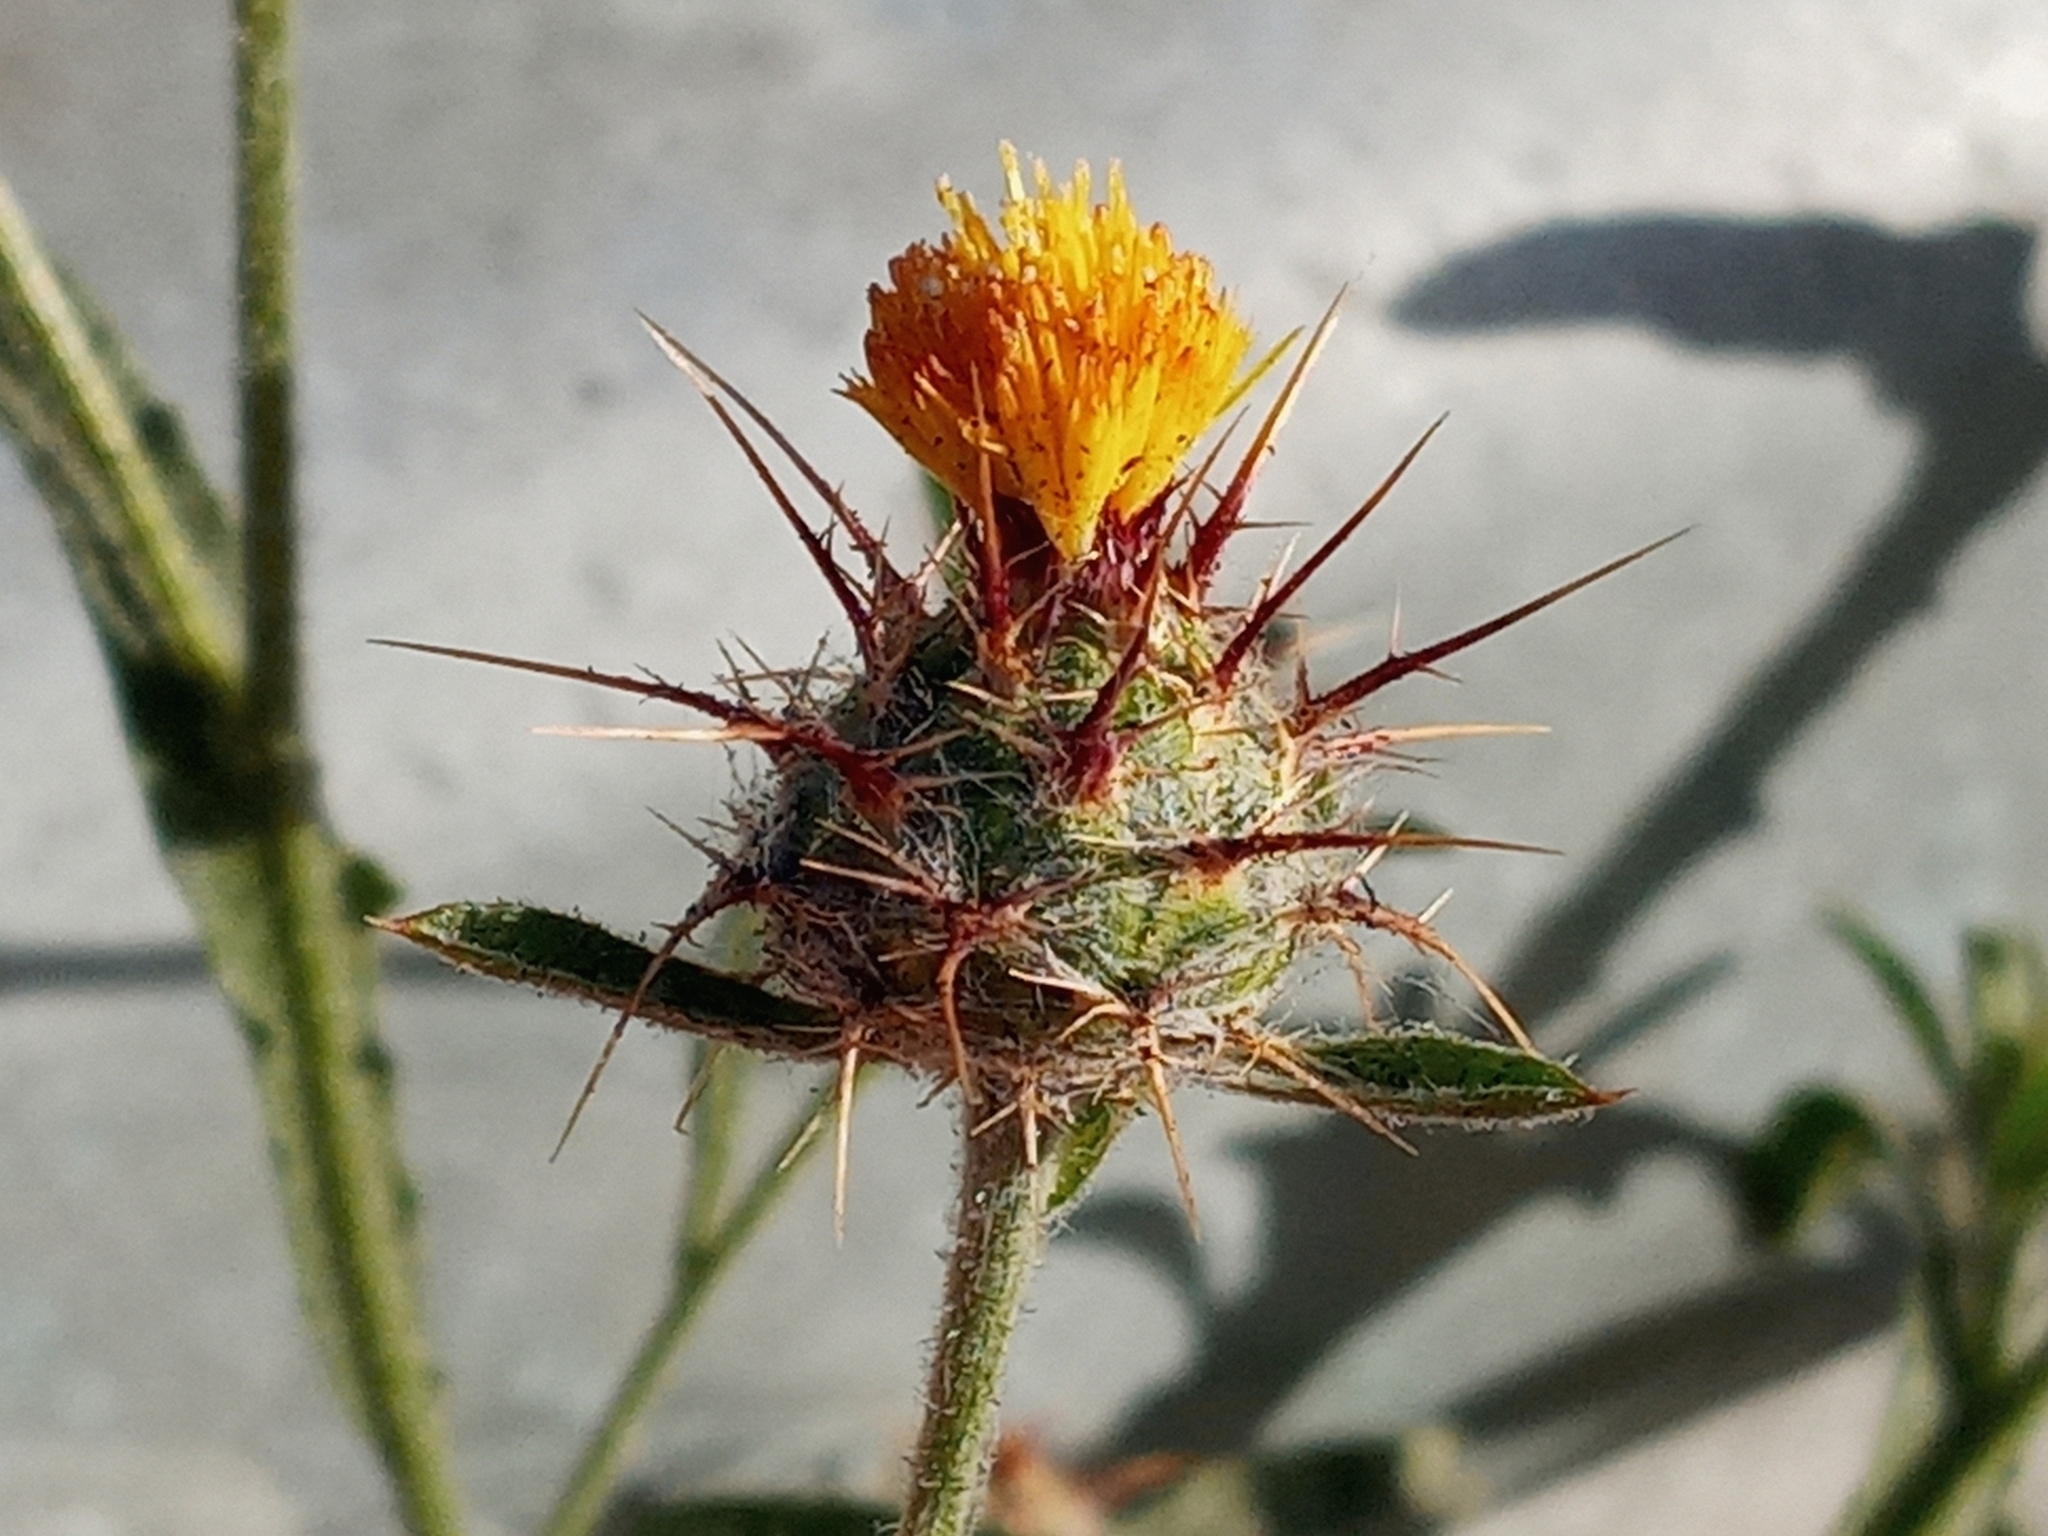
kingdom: Plantae
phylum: Tracheophyta
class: Magnoliopsida
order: Asterales
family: Asteraceae
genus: Centaurea
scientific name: Centaurea melitensis
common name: Maltese star-thistle
